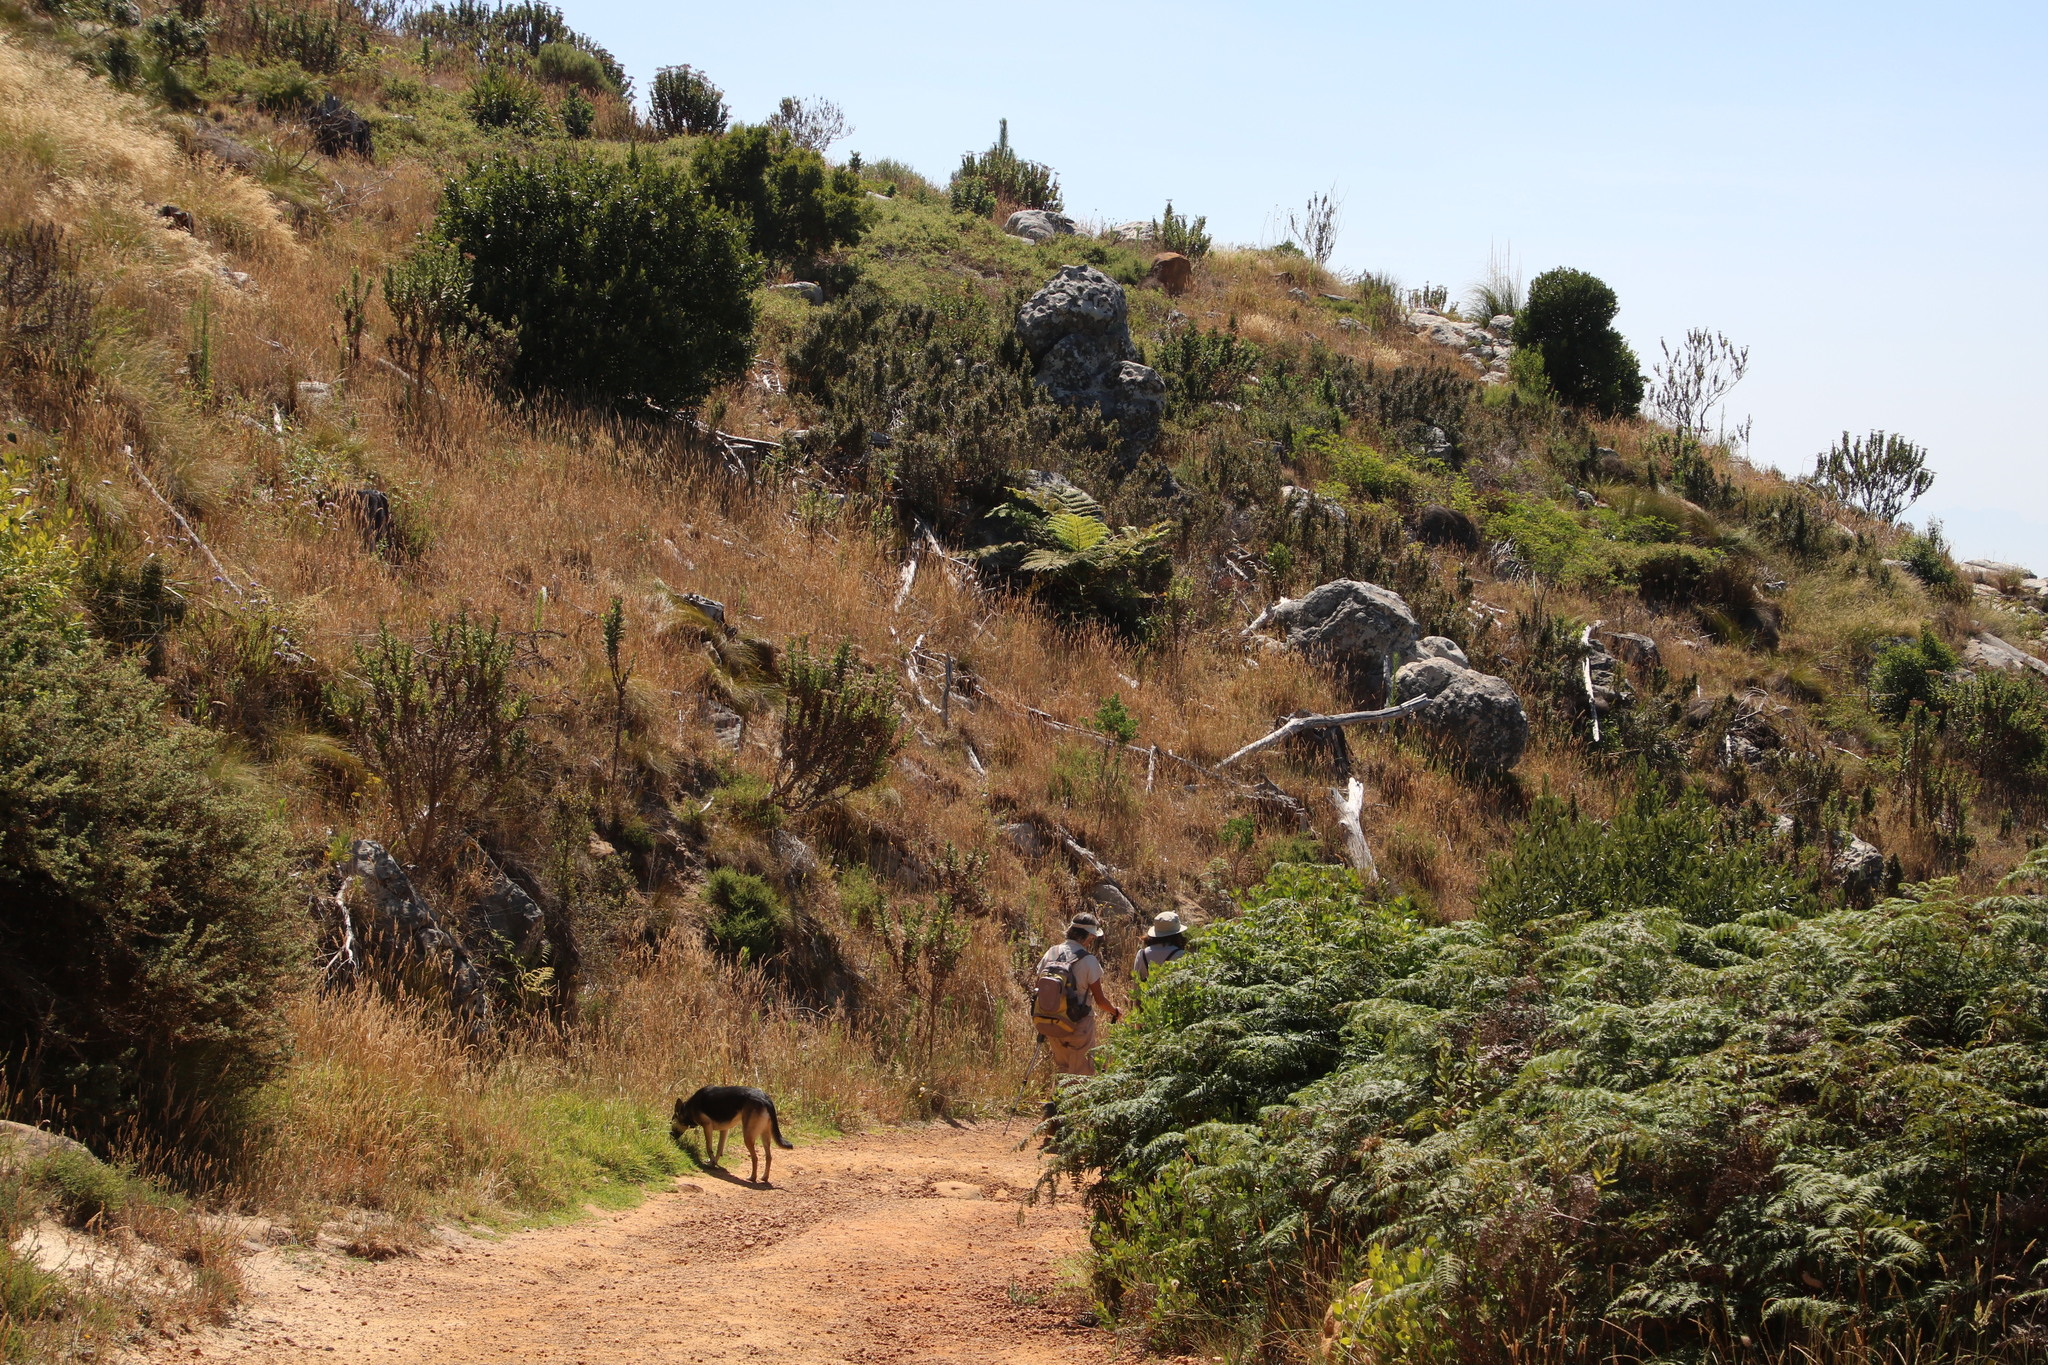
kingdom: Plantae
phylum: Tracheophyta
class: Polypodiopsida
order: Cyatheales
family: Cyatheaceae
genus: Sphaeropteris
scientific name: Sphaeropteris cooperi
